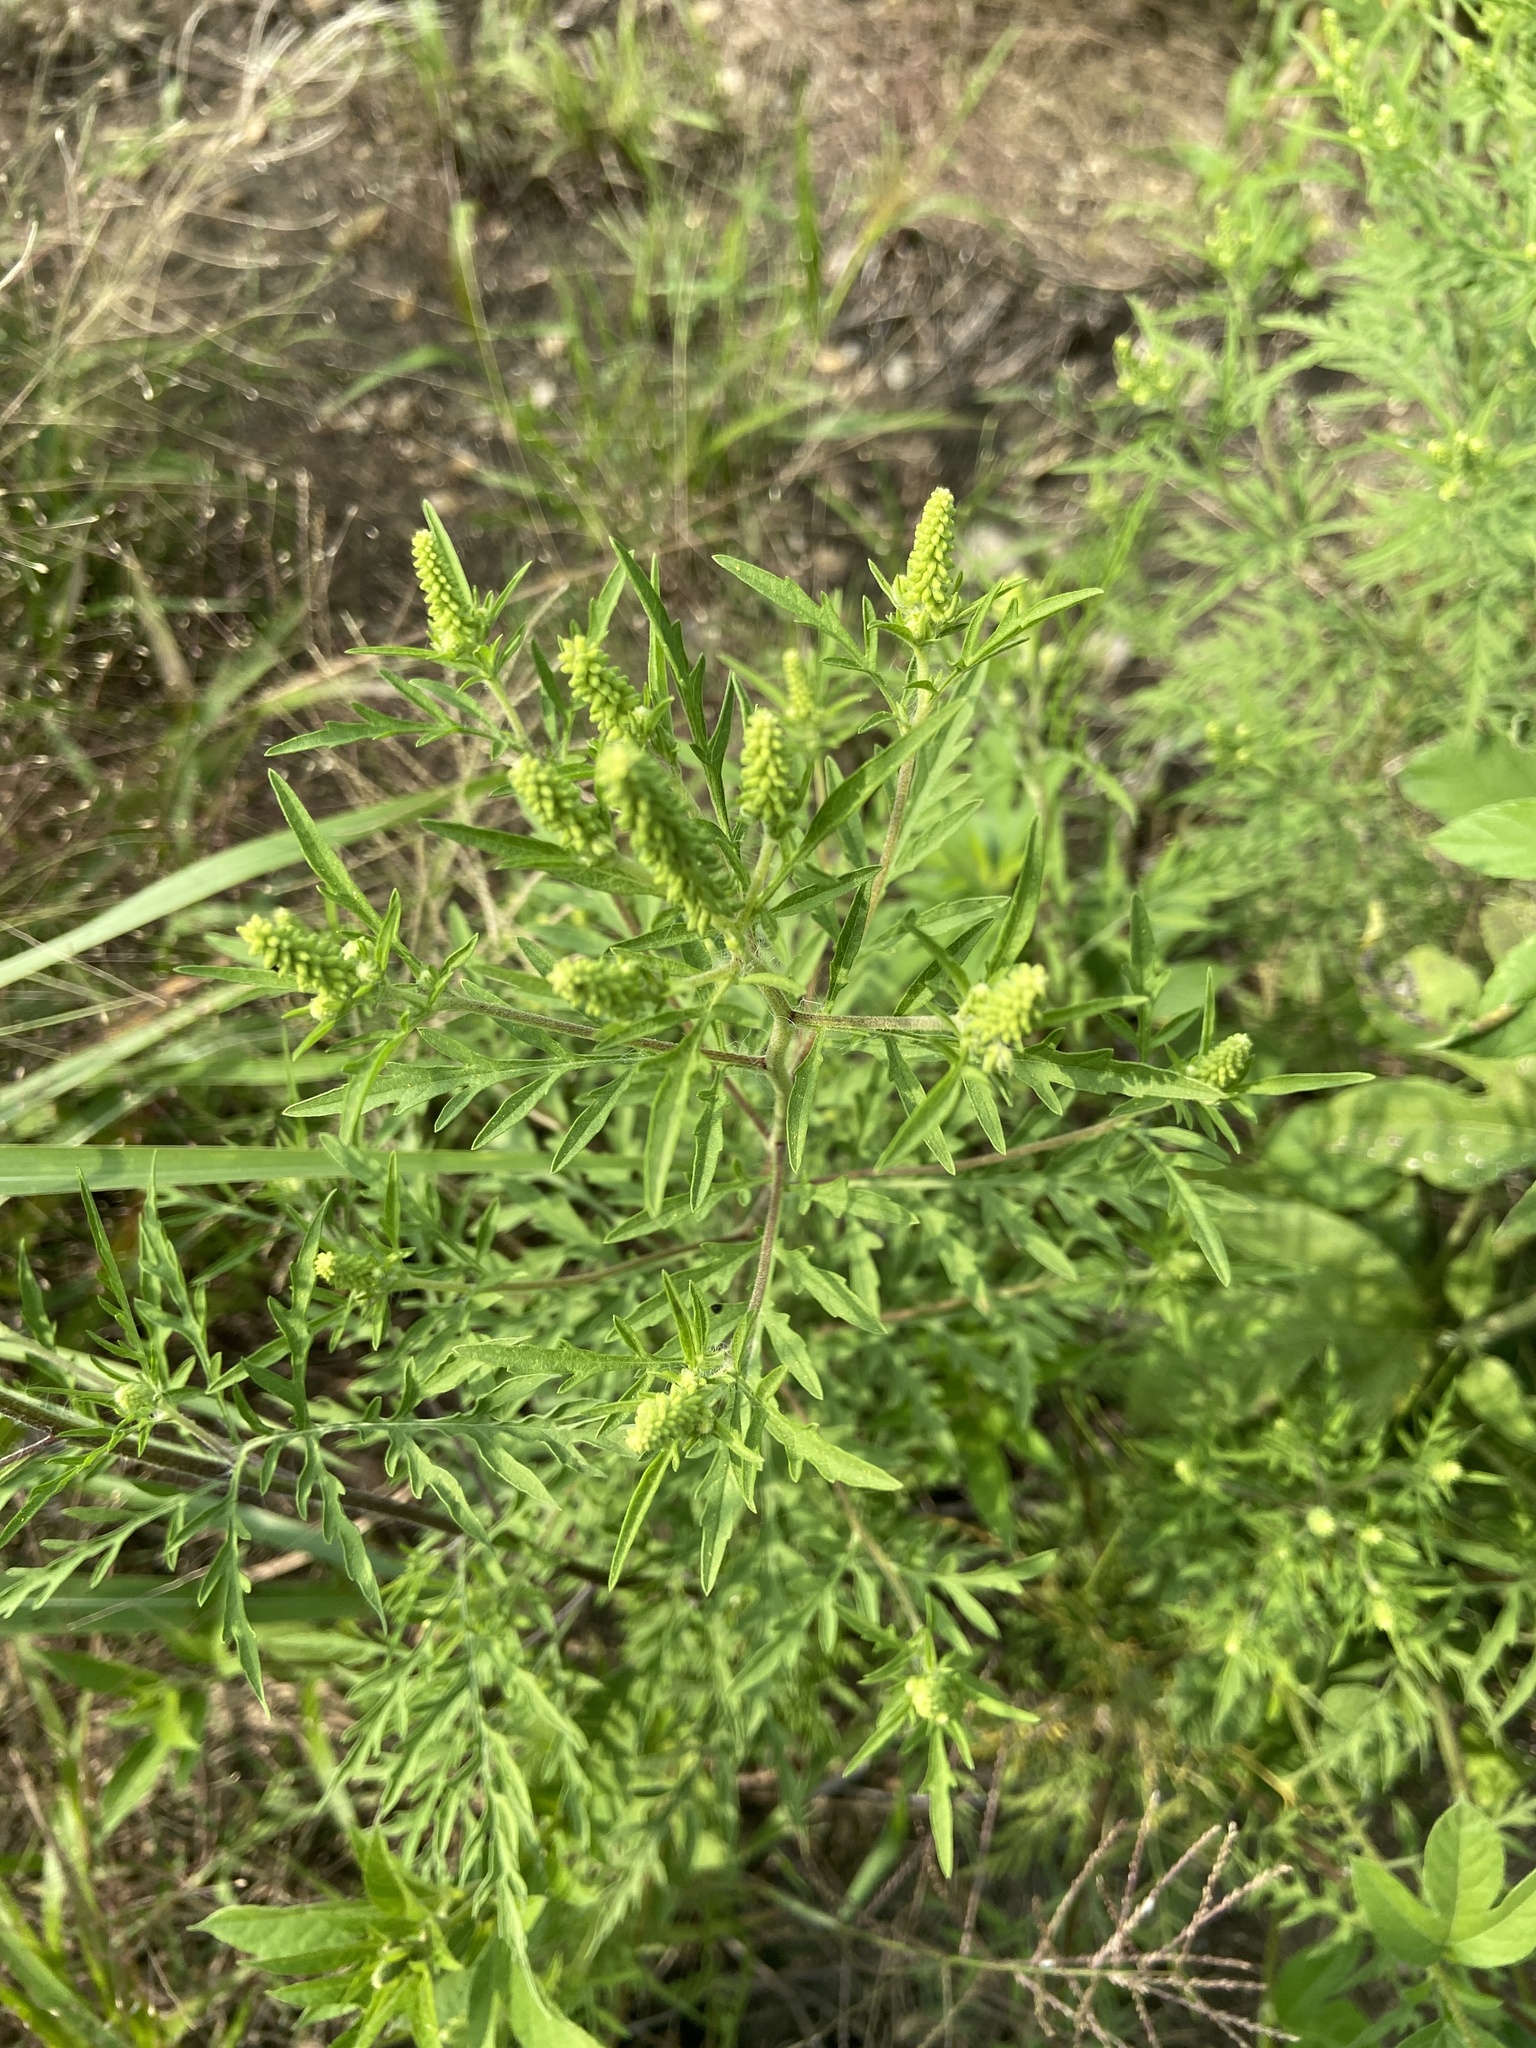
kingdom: Plantae
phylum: Tracheophyta
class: Magnoliopsida
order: Asterales
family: Asteraceae
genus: Ambrosia
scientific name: Ambrosia psilostachya
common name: Perennial ragweed
